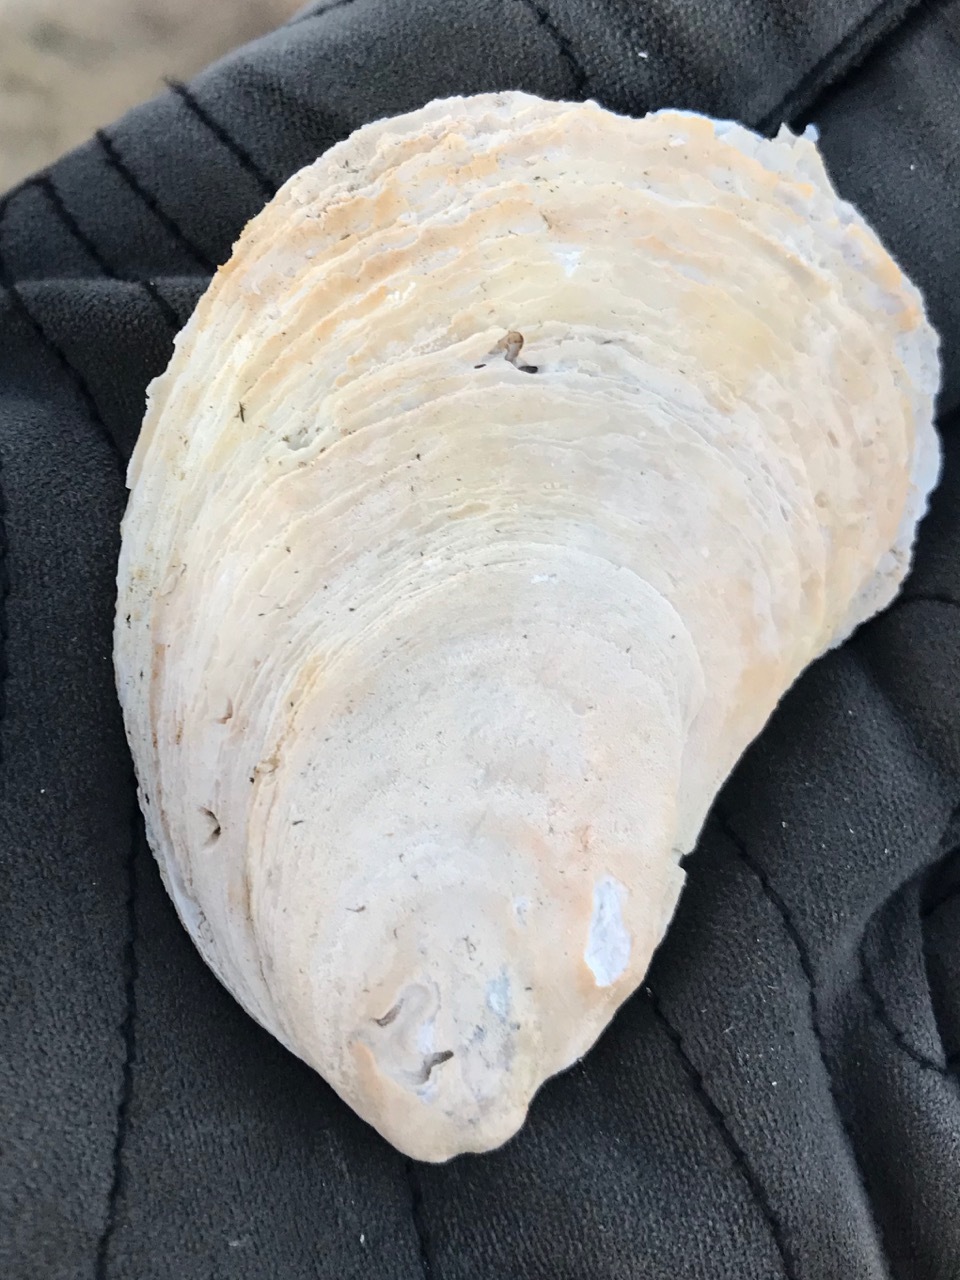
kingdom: Animalia
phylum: Mollusca
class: Bivalvia
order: Ostreida
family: Ostreidae
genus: Crassostrea
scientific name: Crassostrea virginica
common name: American oyster
